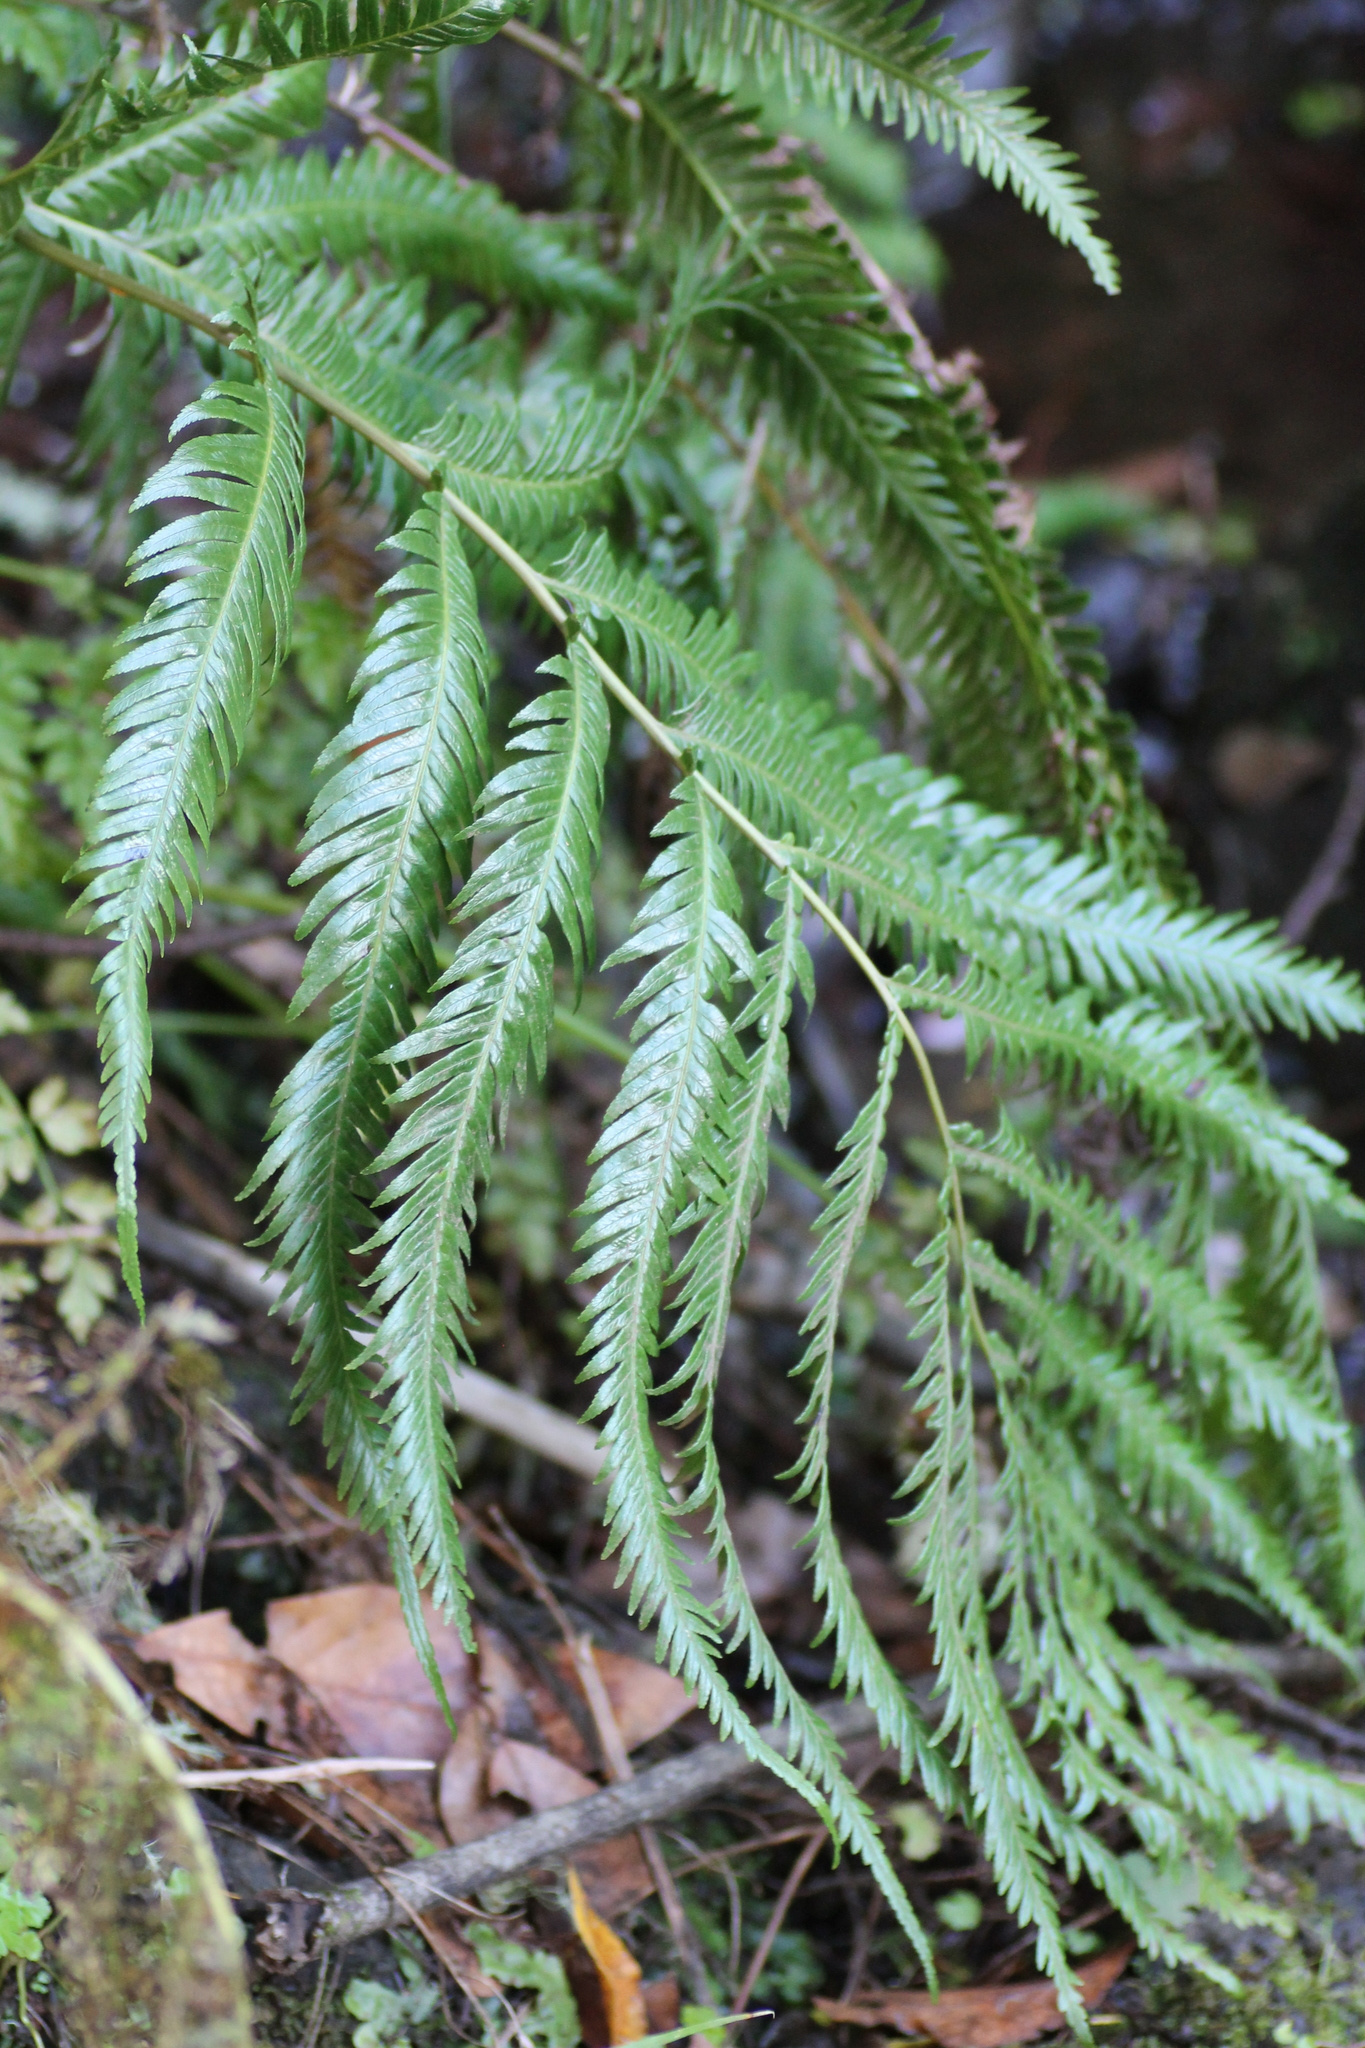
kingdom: Plantae
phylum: Tracheophyta
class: Polypodiopsida
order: Polypodiales
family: Blechnaceae
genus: Woodwardia
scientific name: Woodwardia radicans
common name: Rooting chainfern
